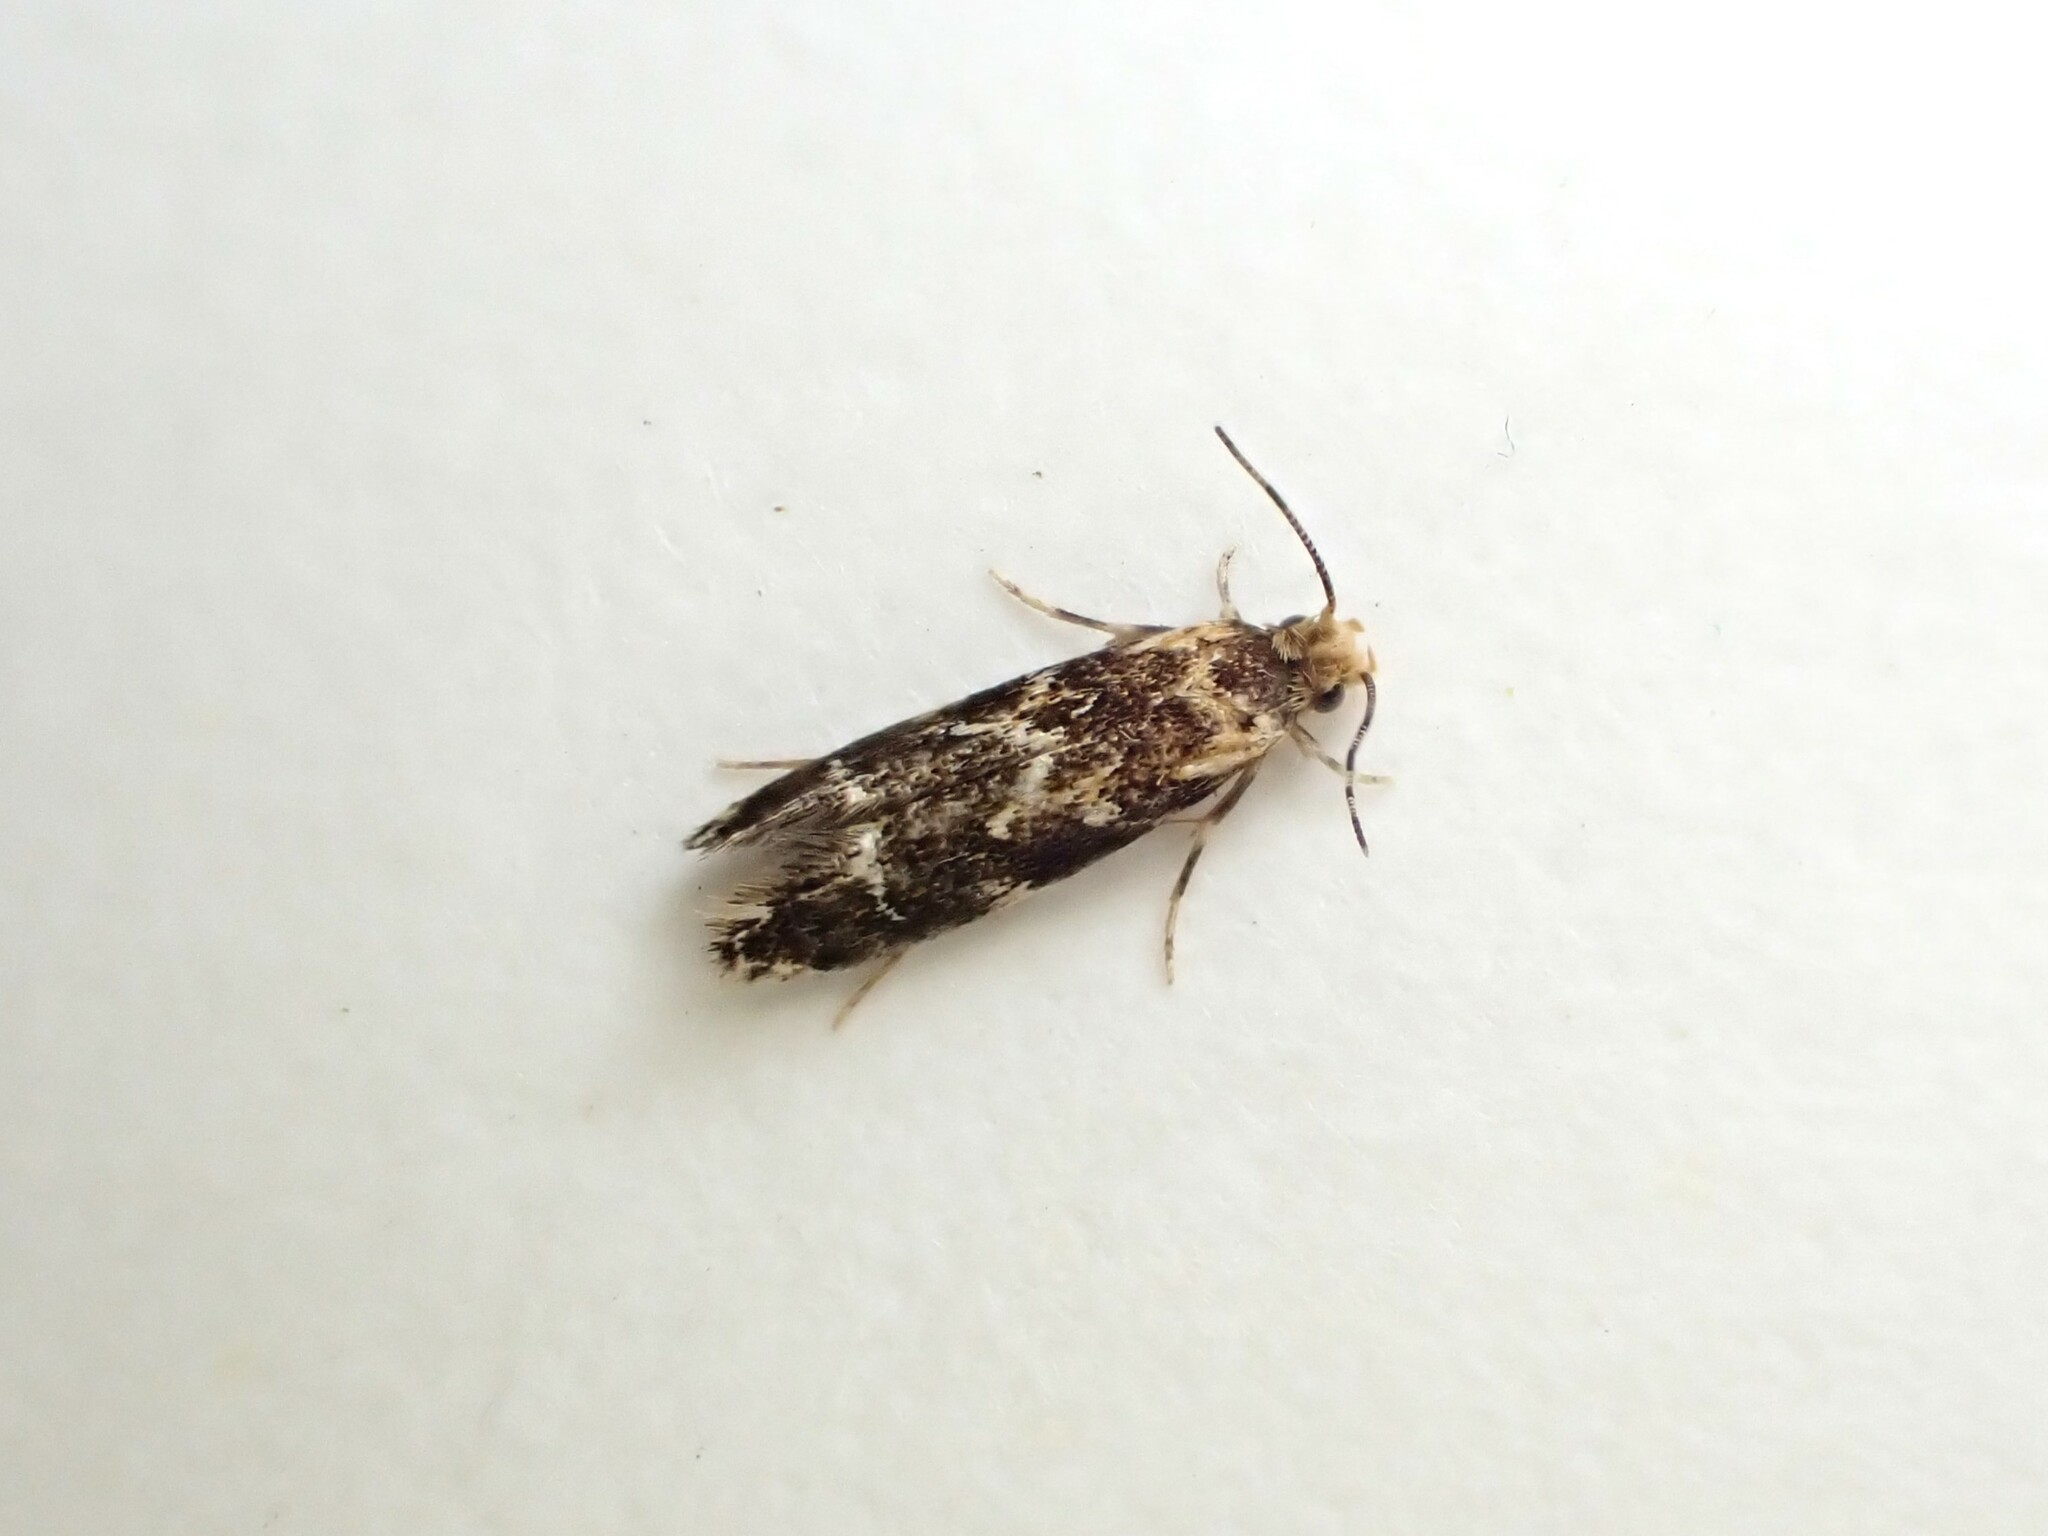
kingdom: Animalia
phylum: Arthropoda
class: Insecta
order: Lepidoptera
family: Dryadaulidae
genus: Dryadaula
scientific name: Dryadaula pactolia
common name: Cellar clothes
